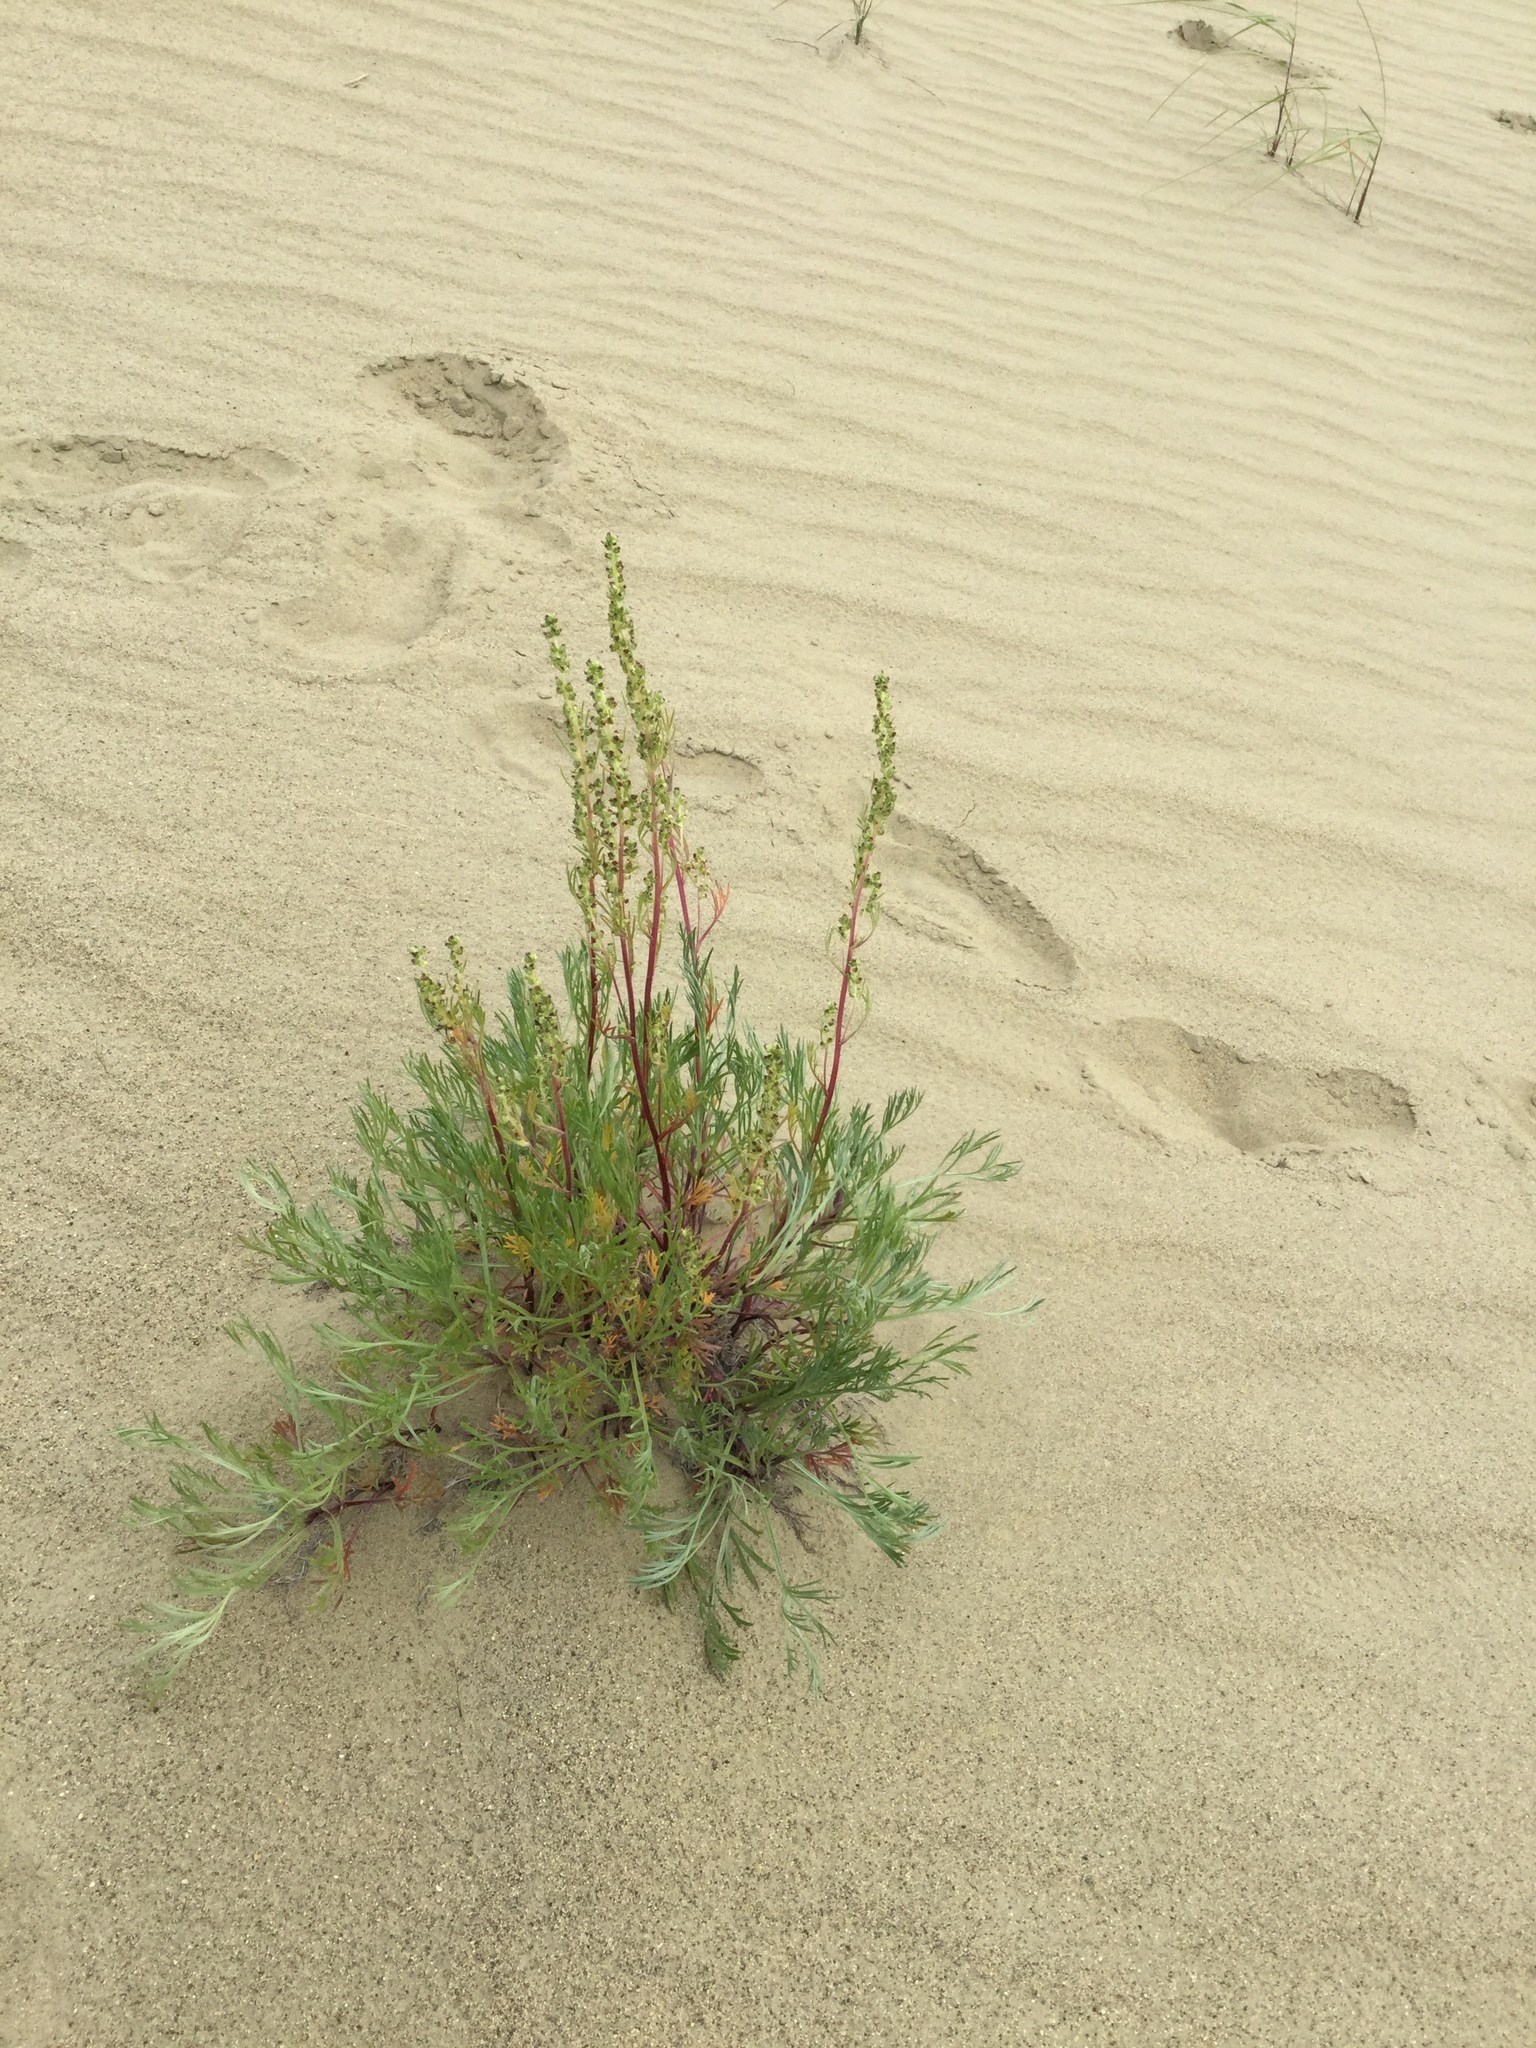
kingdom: Plantae
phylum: Tracheophyta
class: Magnoliopsida
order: Asterales
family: Asteraceae
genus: Artemisia
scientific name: Artemisia borealis
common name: Boreal sage
